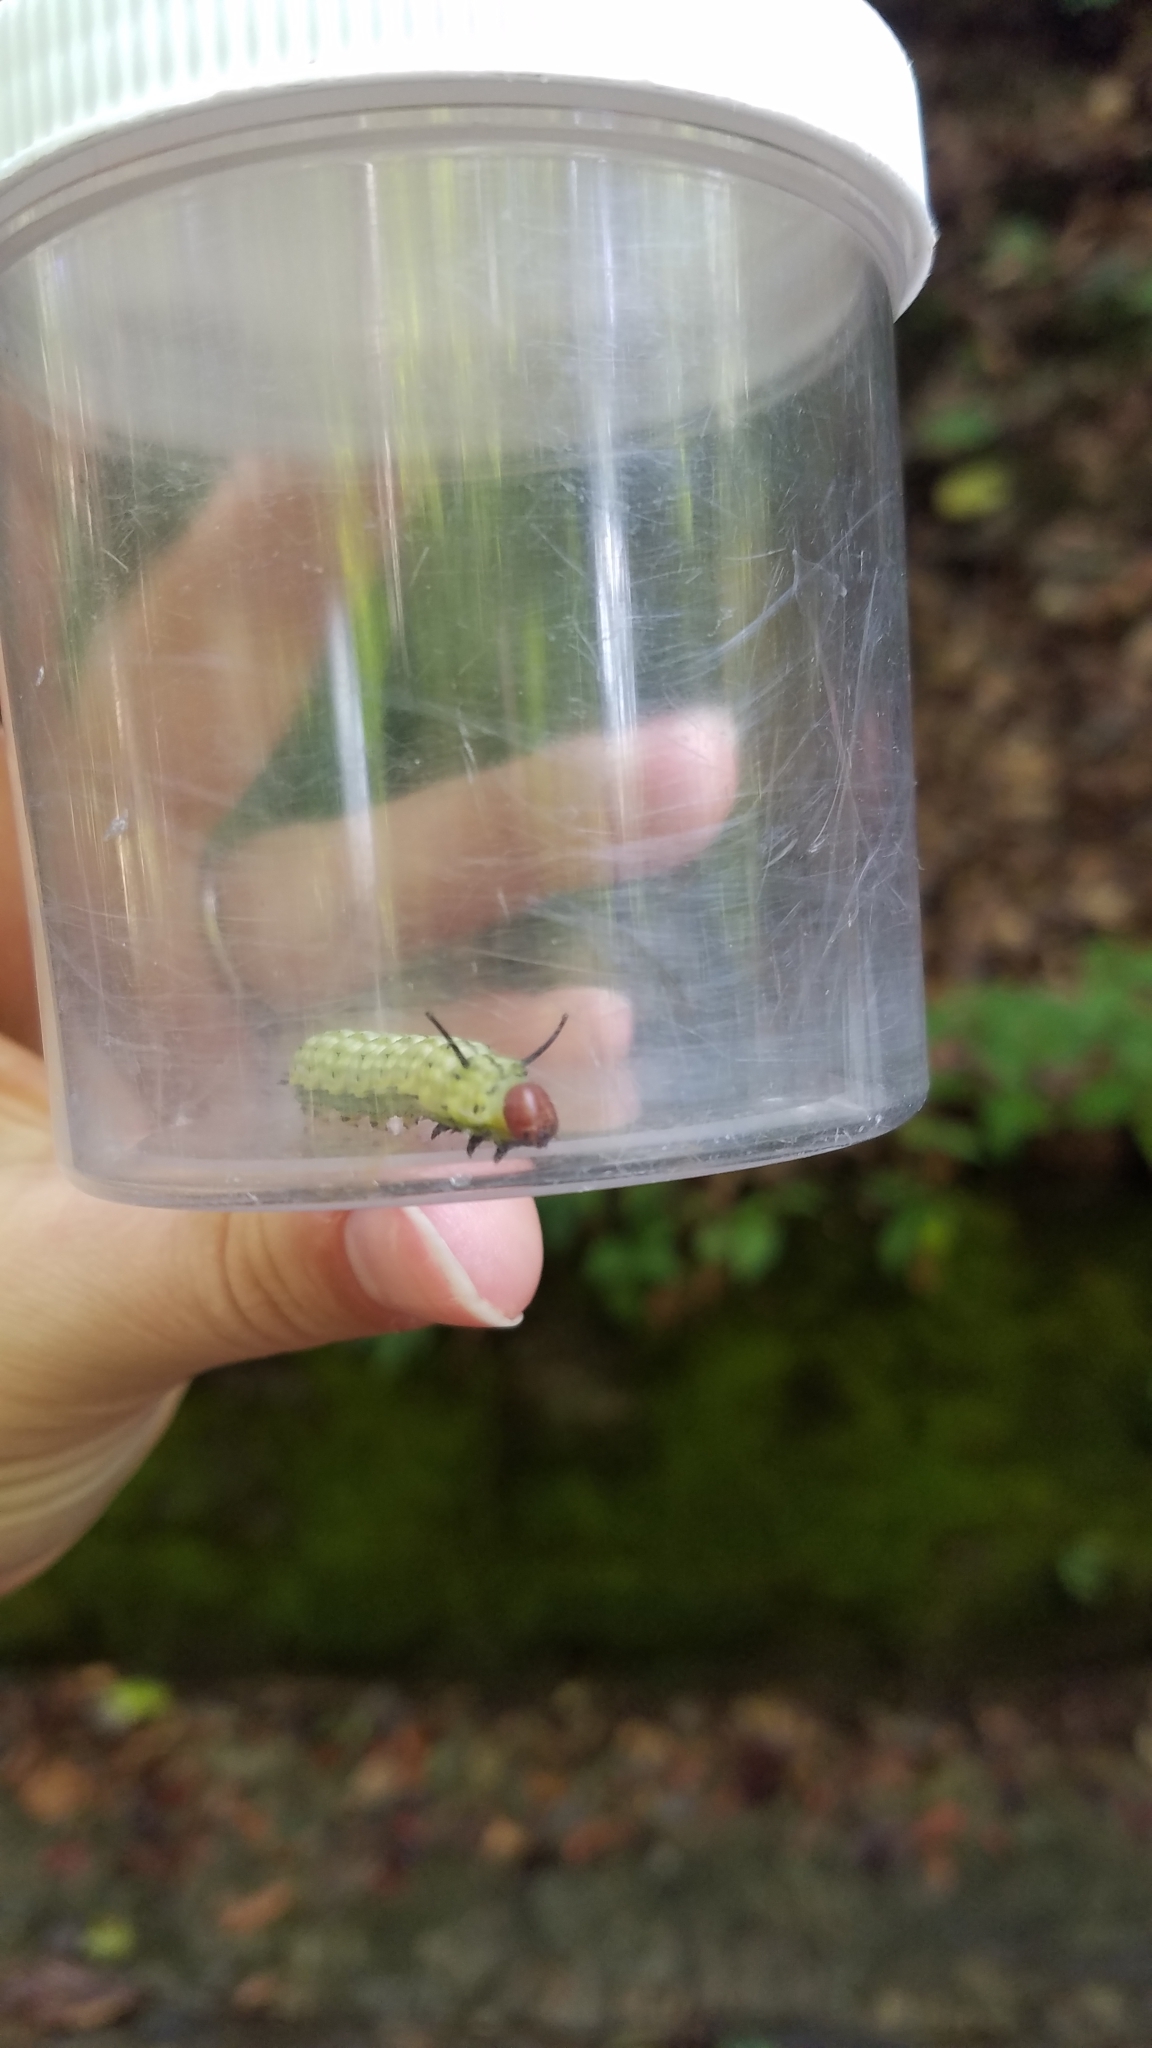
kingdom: Animalia
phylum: Arthropoda
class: Insecta
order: Lepidoptera
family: Saturniidae
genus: Dryocampa
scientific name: Dryocampa rubicunda
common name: Rosy maple moth
